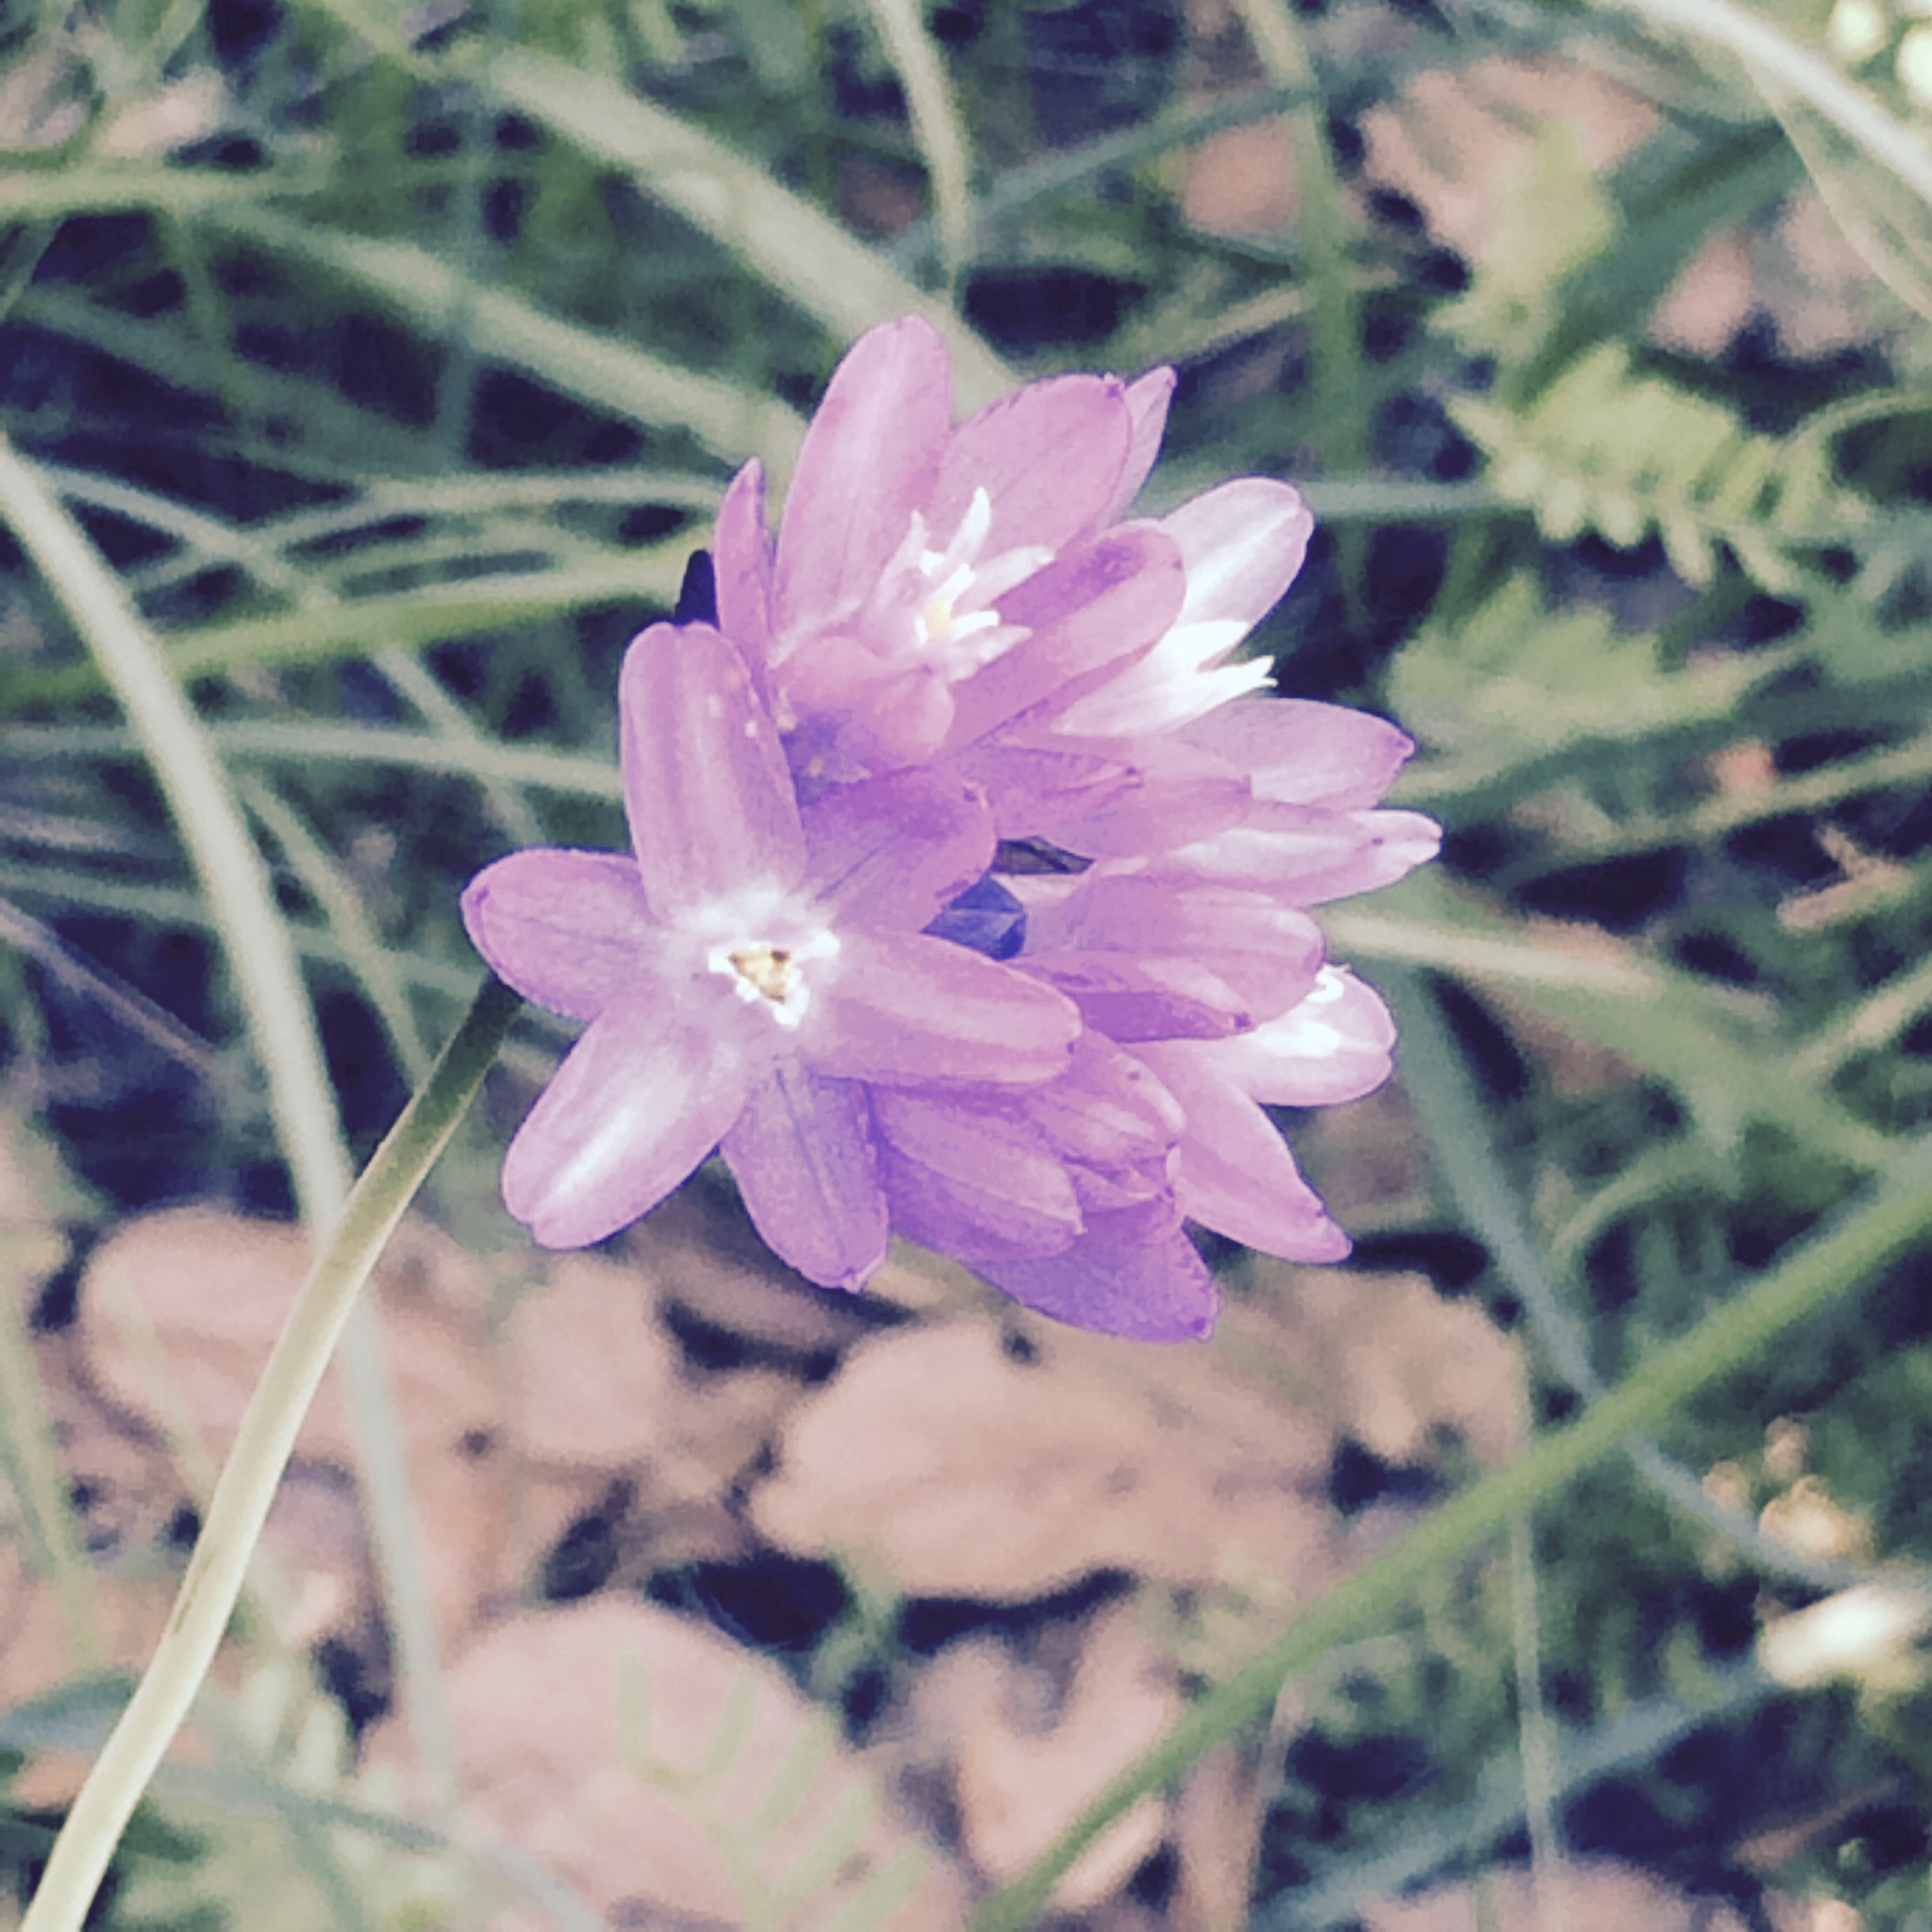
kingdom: Plantae
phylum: Tracheophyta
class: Liliopsida
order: Asparagales
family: Asparagaceae
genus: Dipterostemon
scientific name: Dipterostemon capitatus
